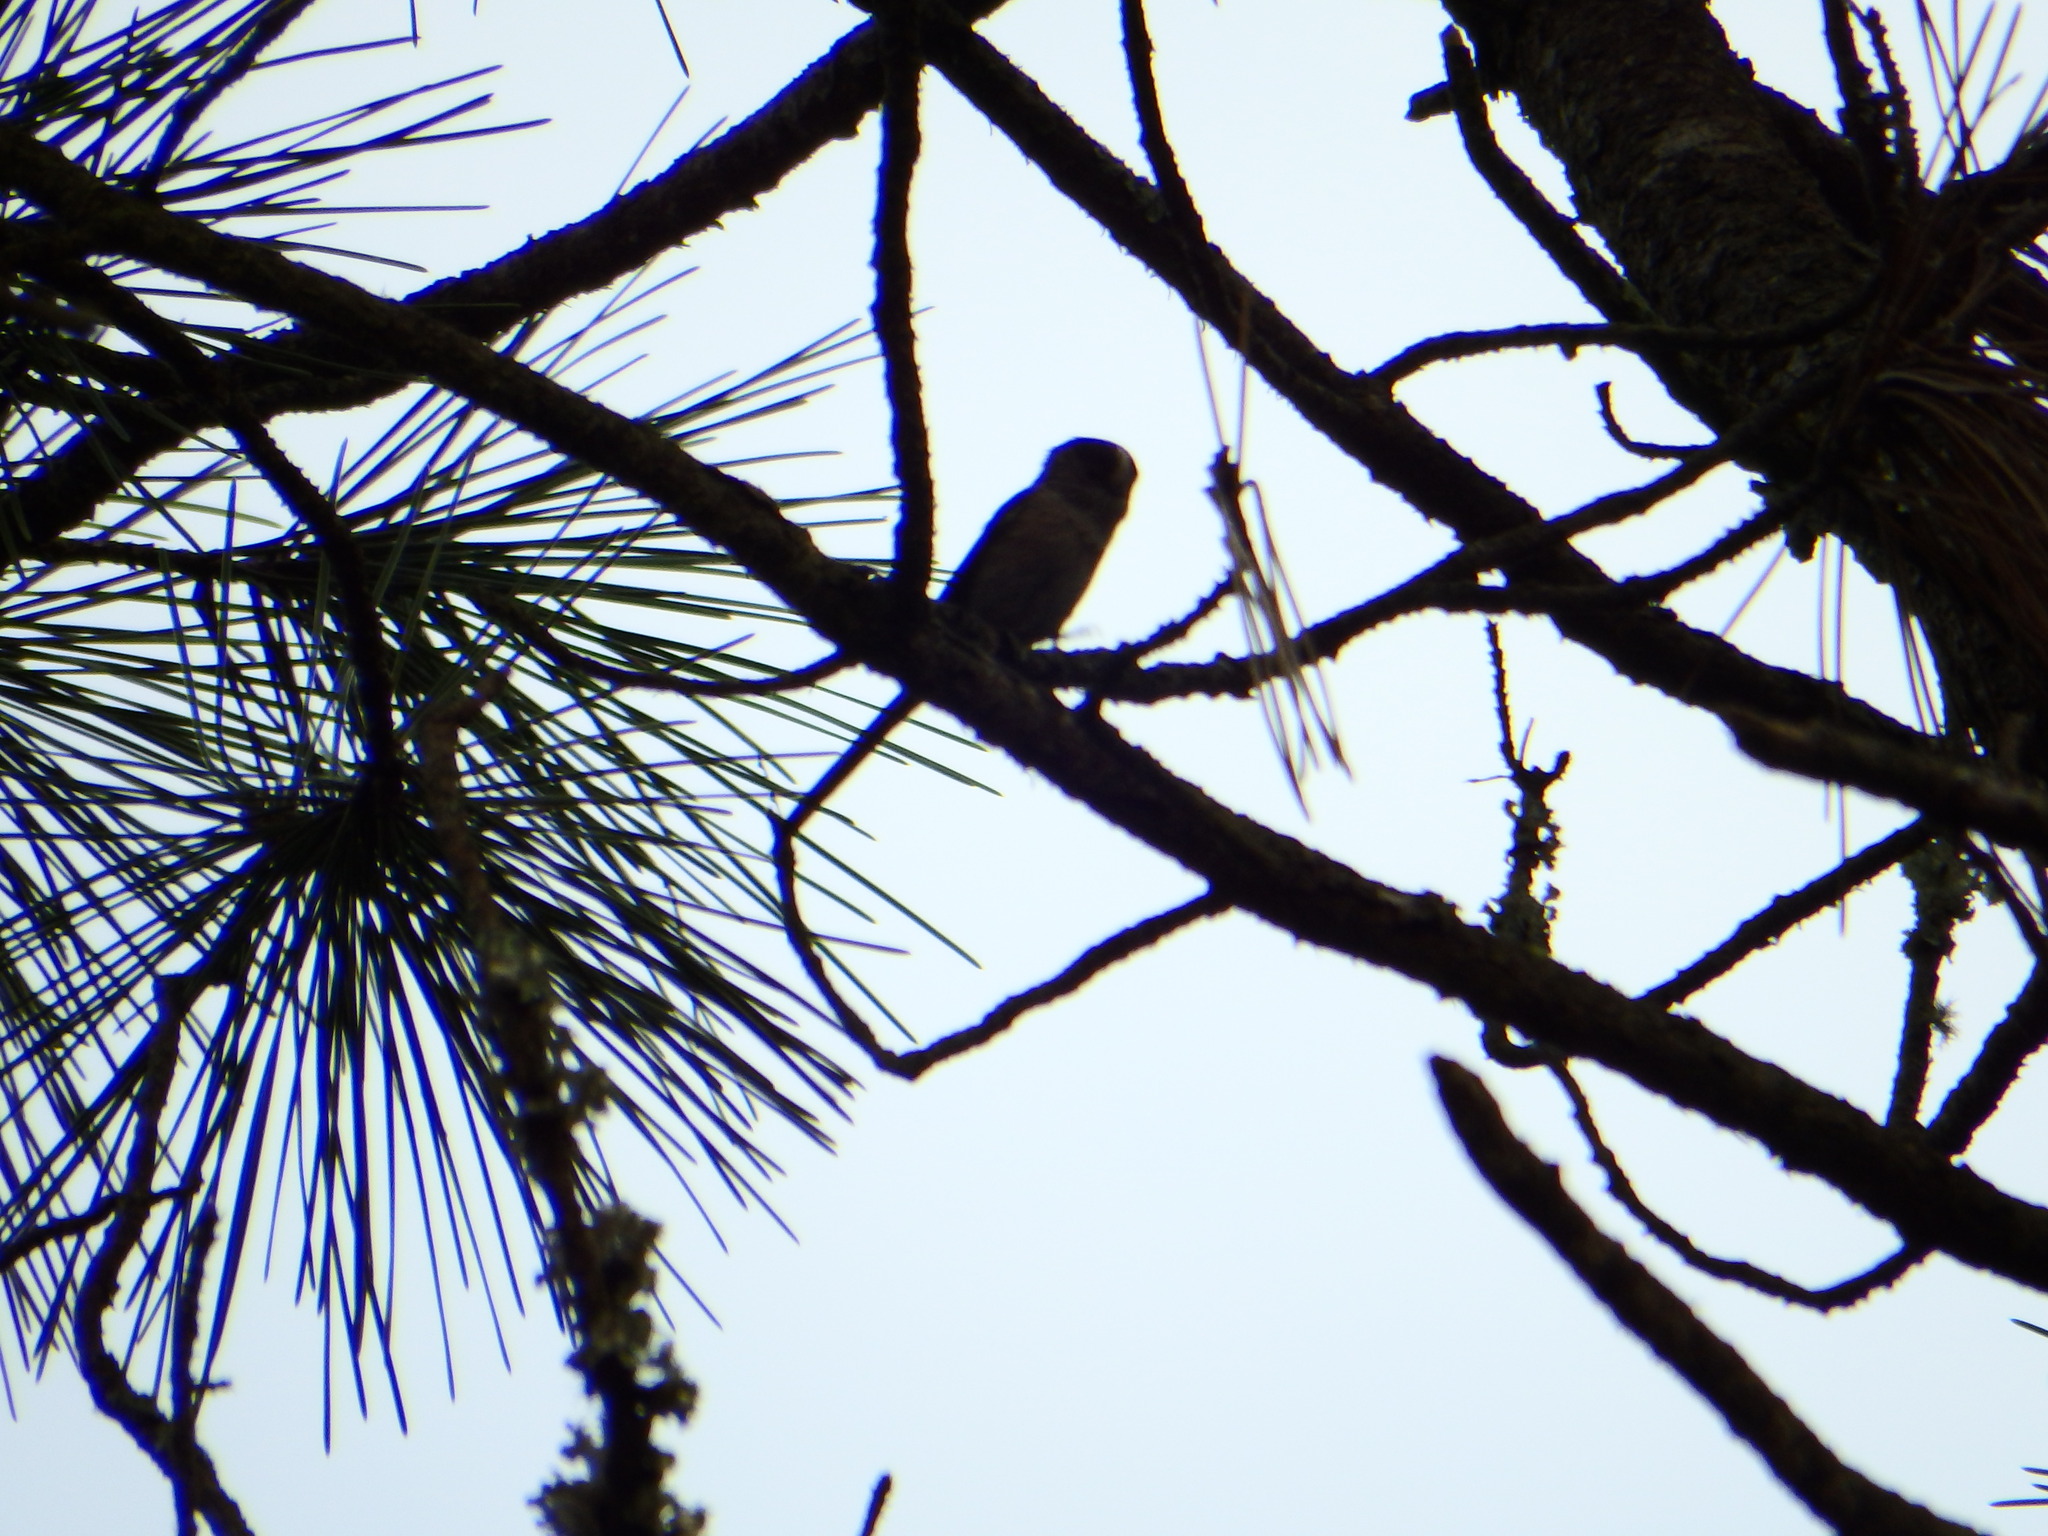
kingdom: Animalia
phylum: Chordata
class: Aves
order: Passeriformes
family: Aegithalidae
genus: Aegithalos
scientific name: Aegithalos caudatus
